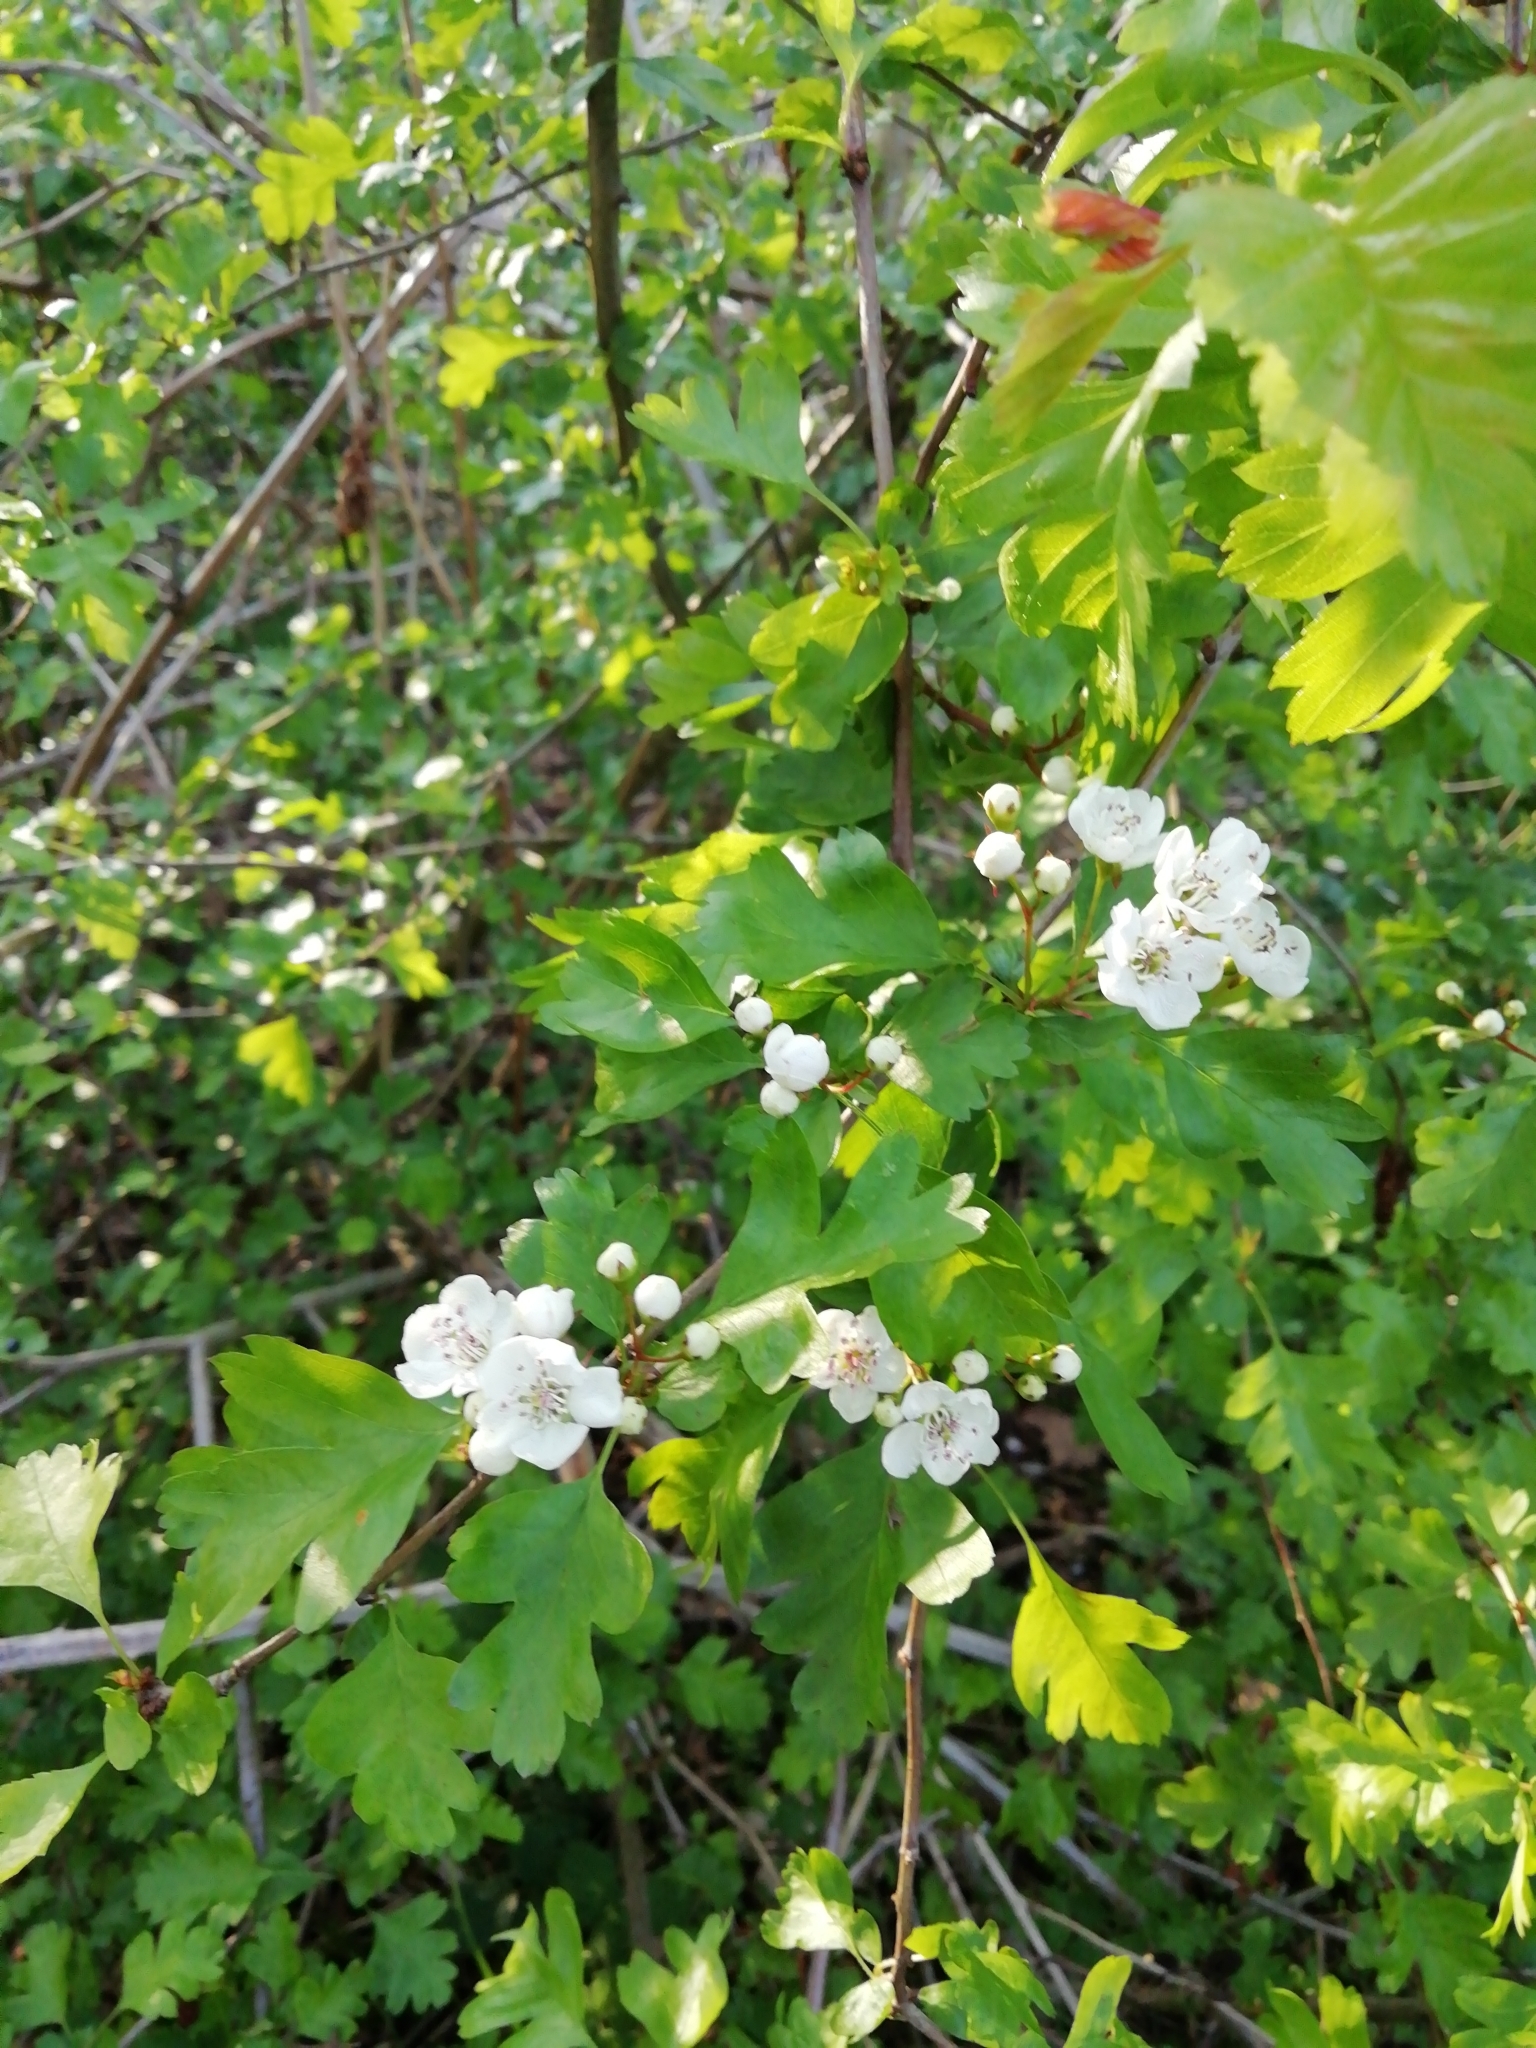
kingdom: Plantae
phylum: Tracheophyta
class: Magnoliopsida
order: Rosales
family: Rosaceae
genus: Crataegus
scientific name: Crataegus monogyna
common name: Hawthorn
